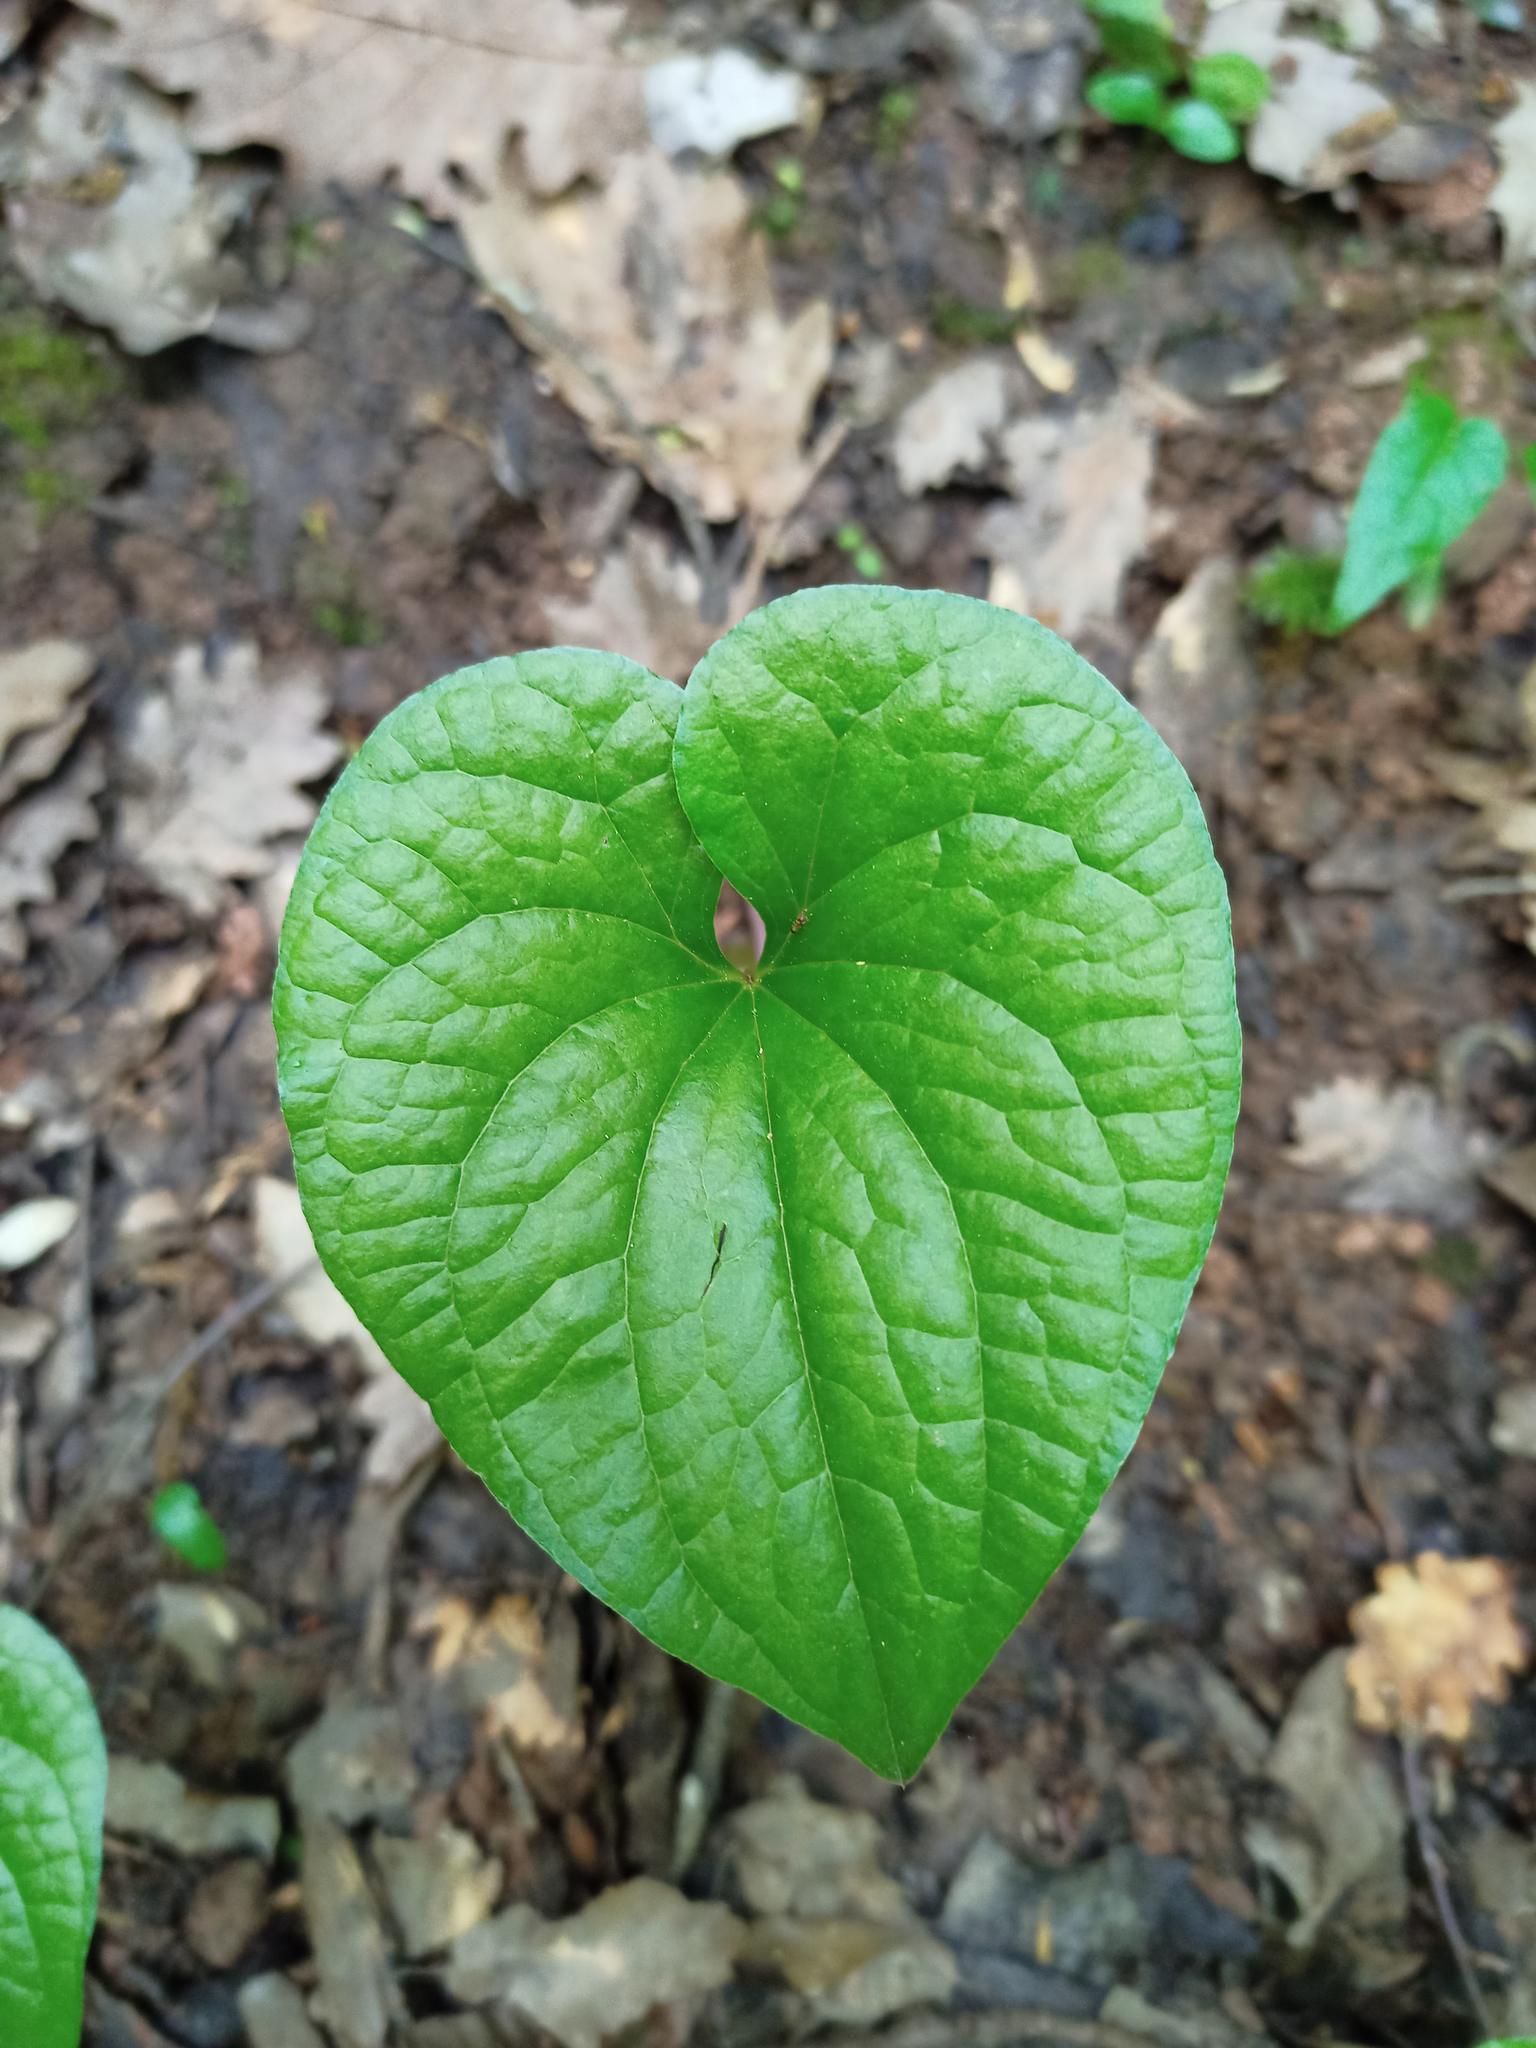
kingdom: Plantae
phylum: Tracheophyta
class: Liliopsida
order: Dioscoreales
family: Dioscoreaceae
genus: Dioscorea
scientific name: Dioscorea communis
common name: Black-bindweed
